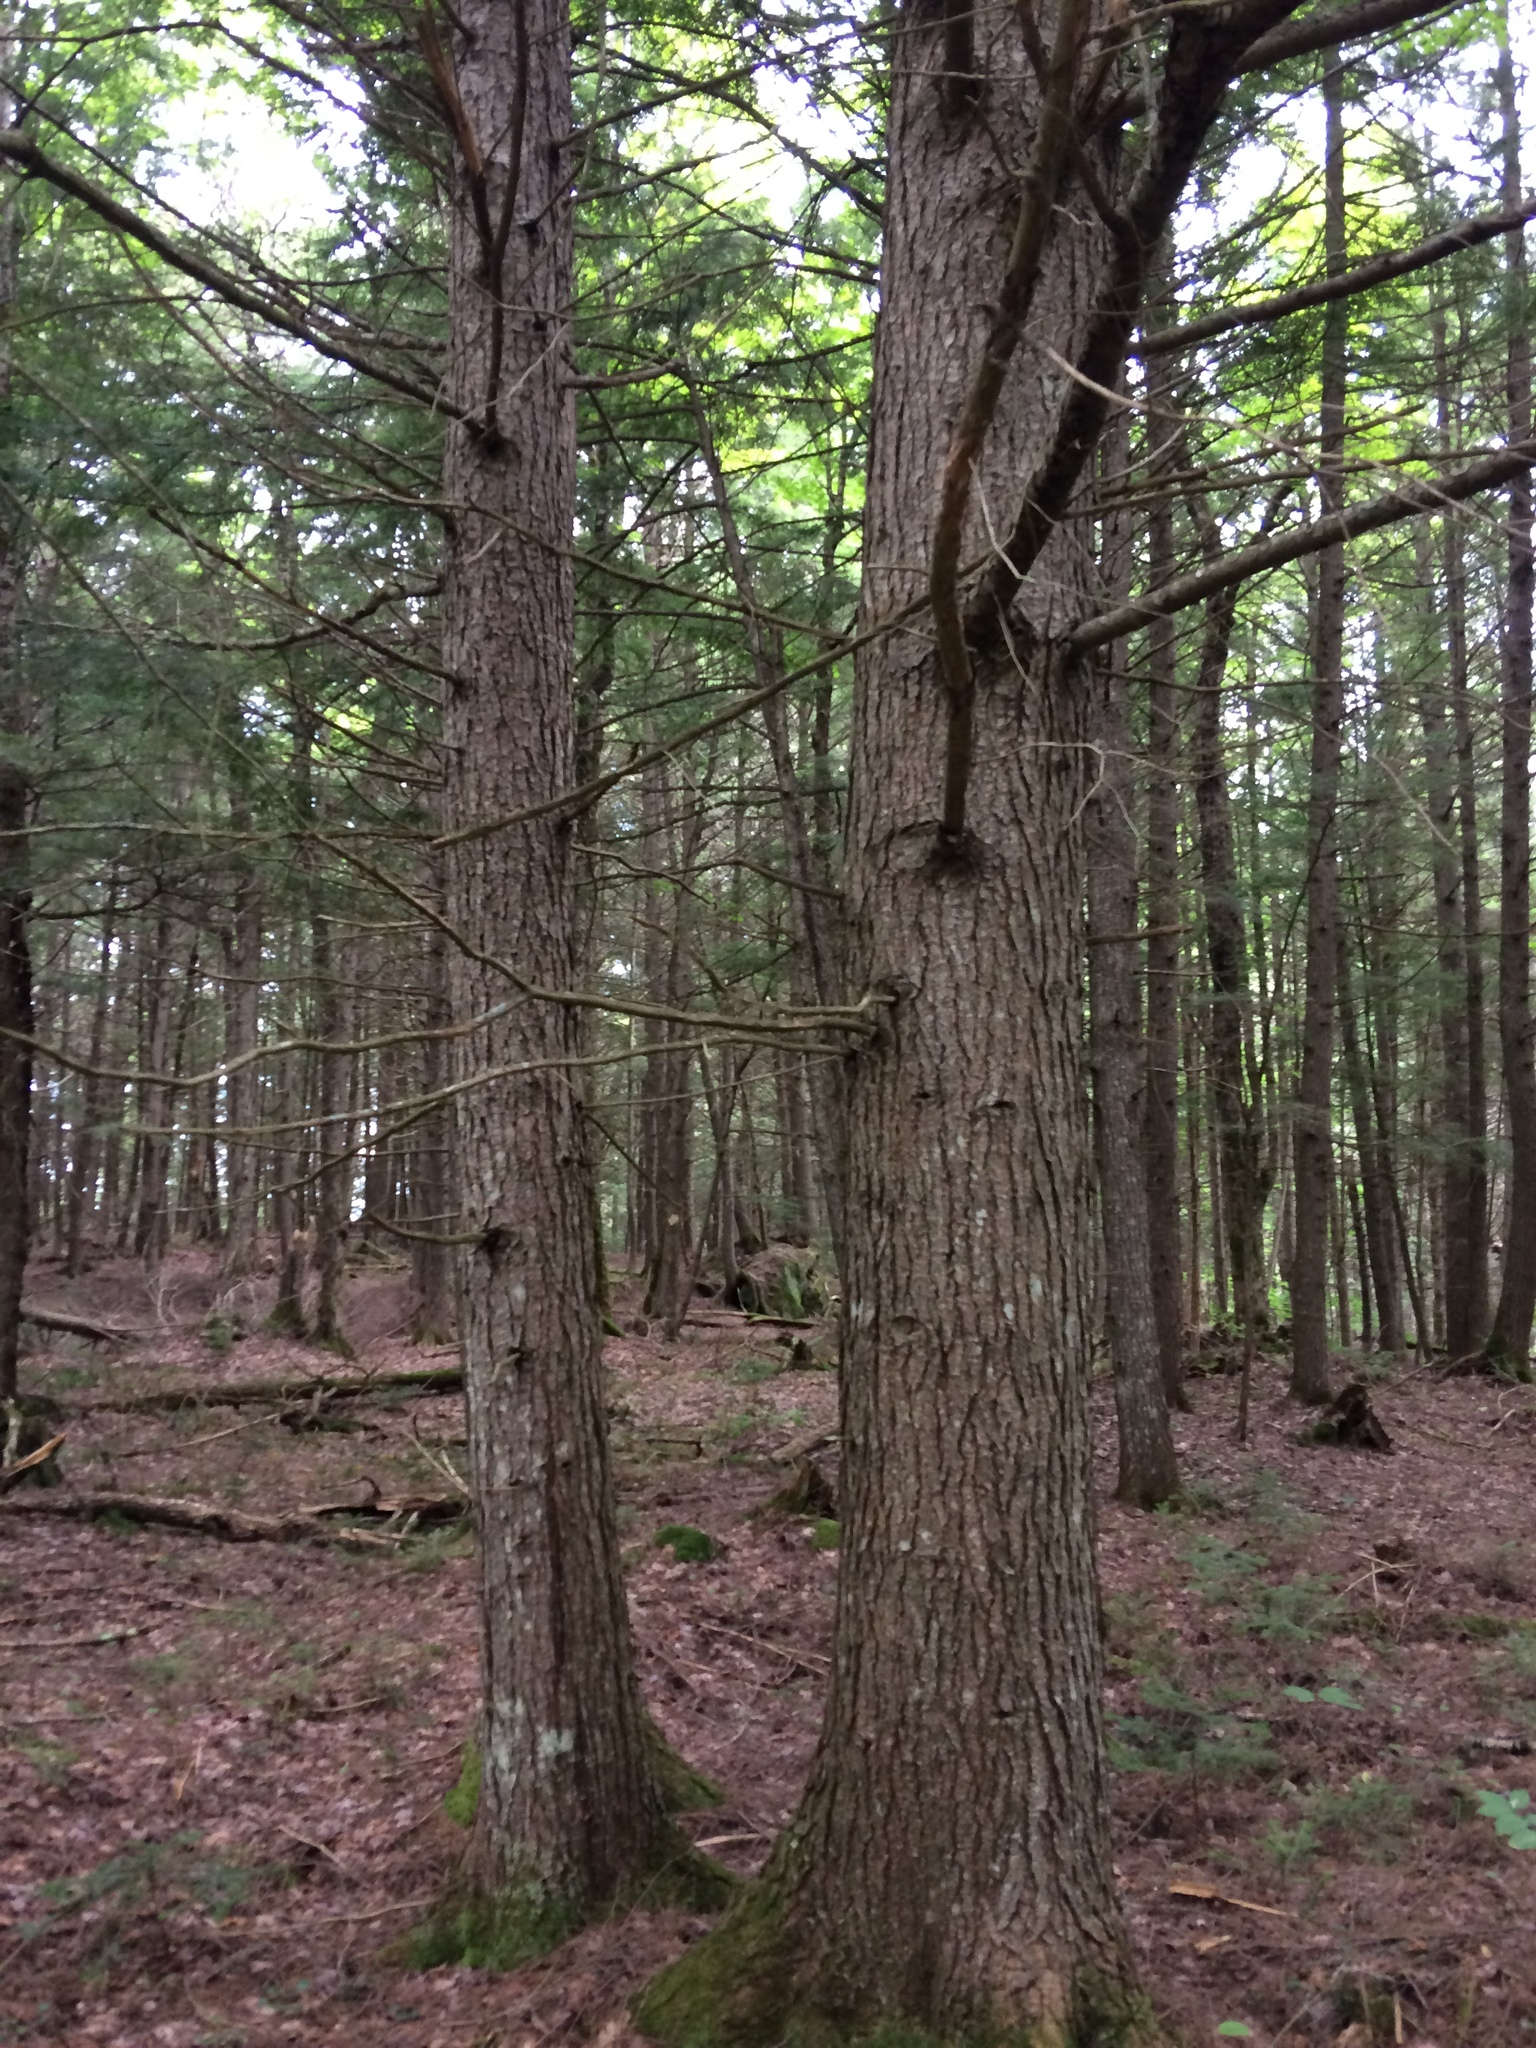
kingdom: Plantae
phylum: Tracheophyta
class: Pinopsida
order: Pinales
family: Pinaceae
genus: Tsuga
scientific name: Tsuga canadensis
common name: Eastern hemlock
